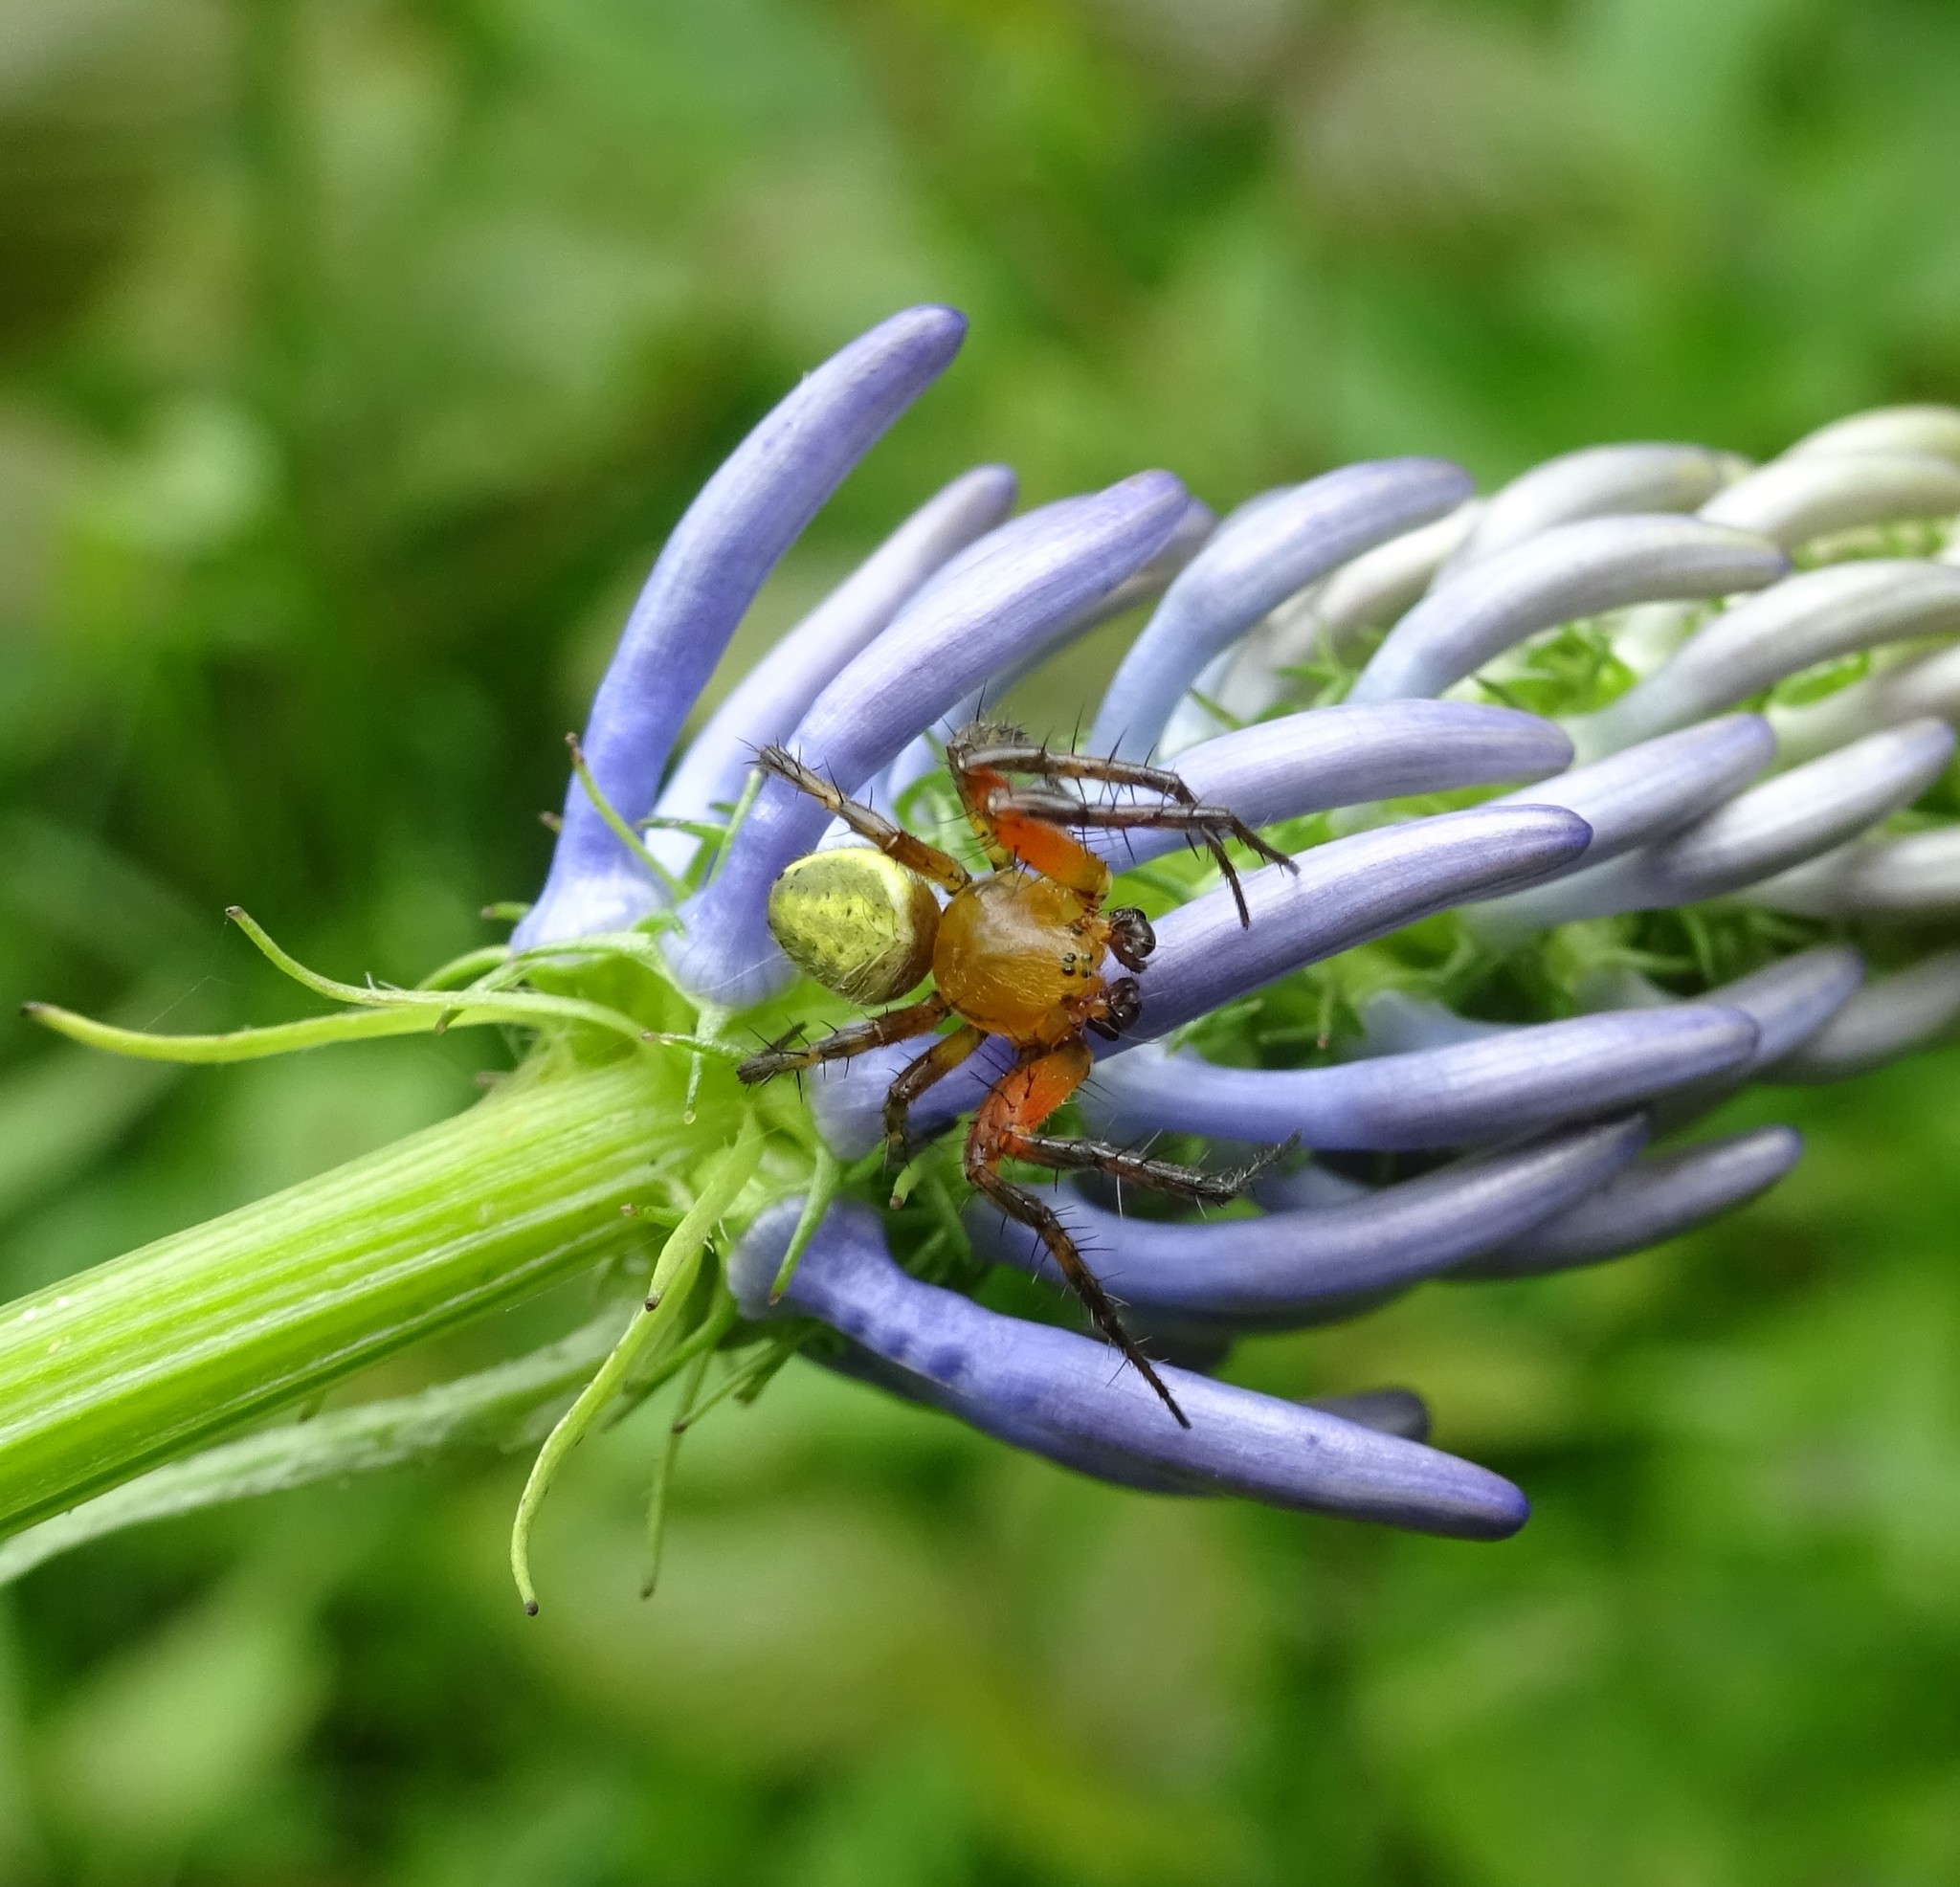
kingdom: Animalia
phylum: Arthropoda
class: Arachnida
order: Araneae
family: Araneidae
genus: Araniella
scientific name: Araniella cucurbitina
